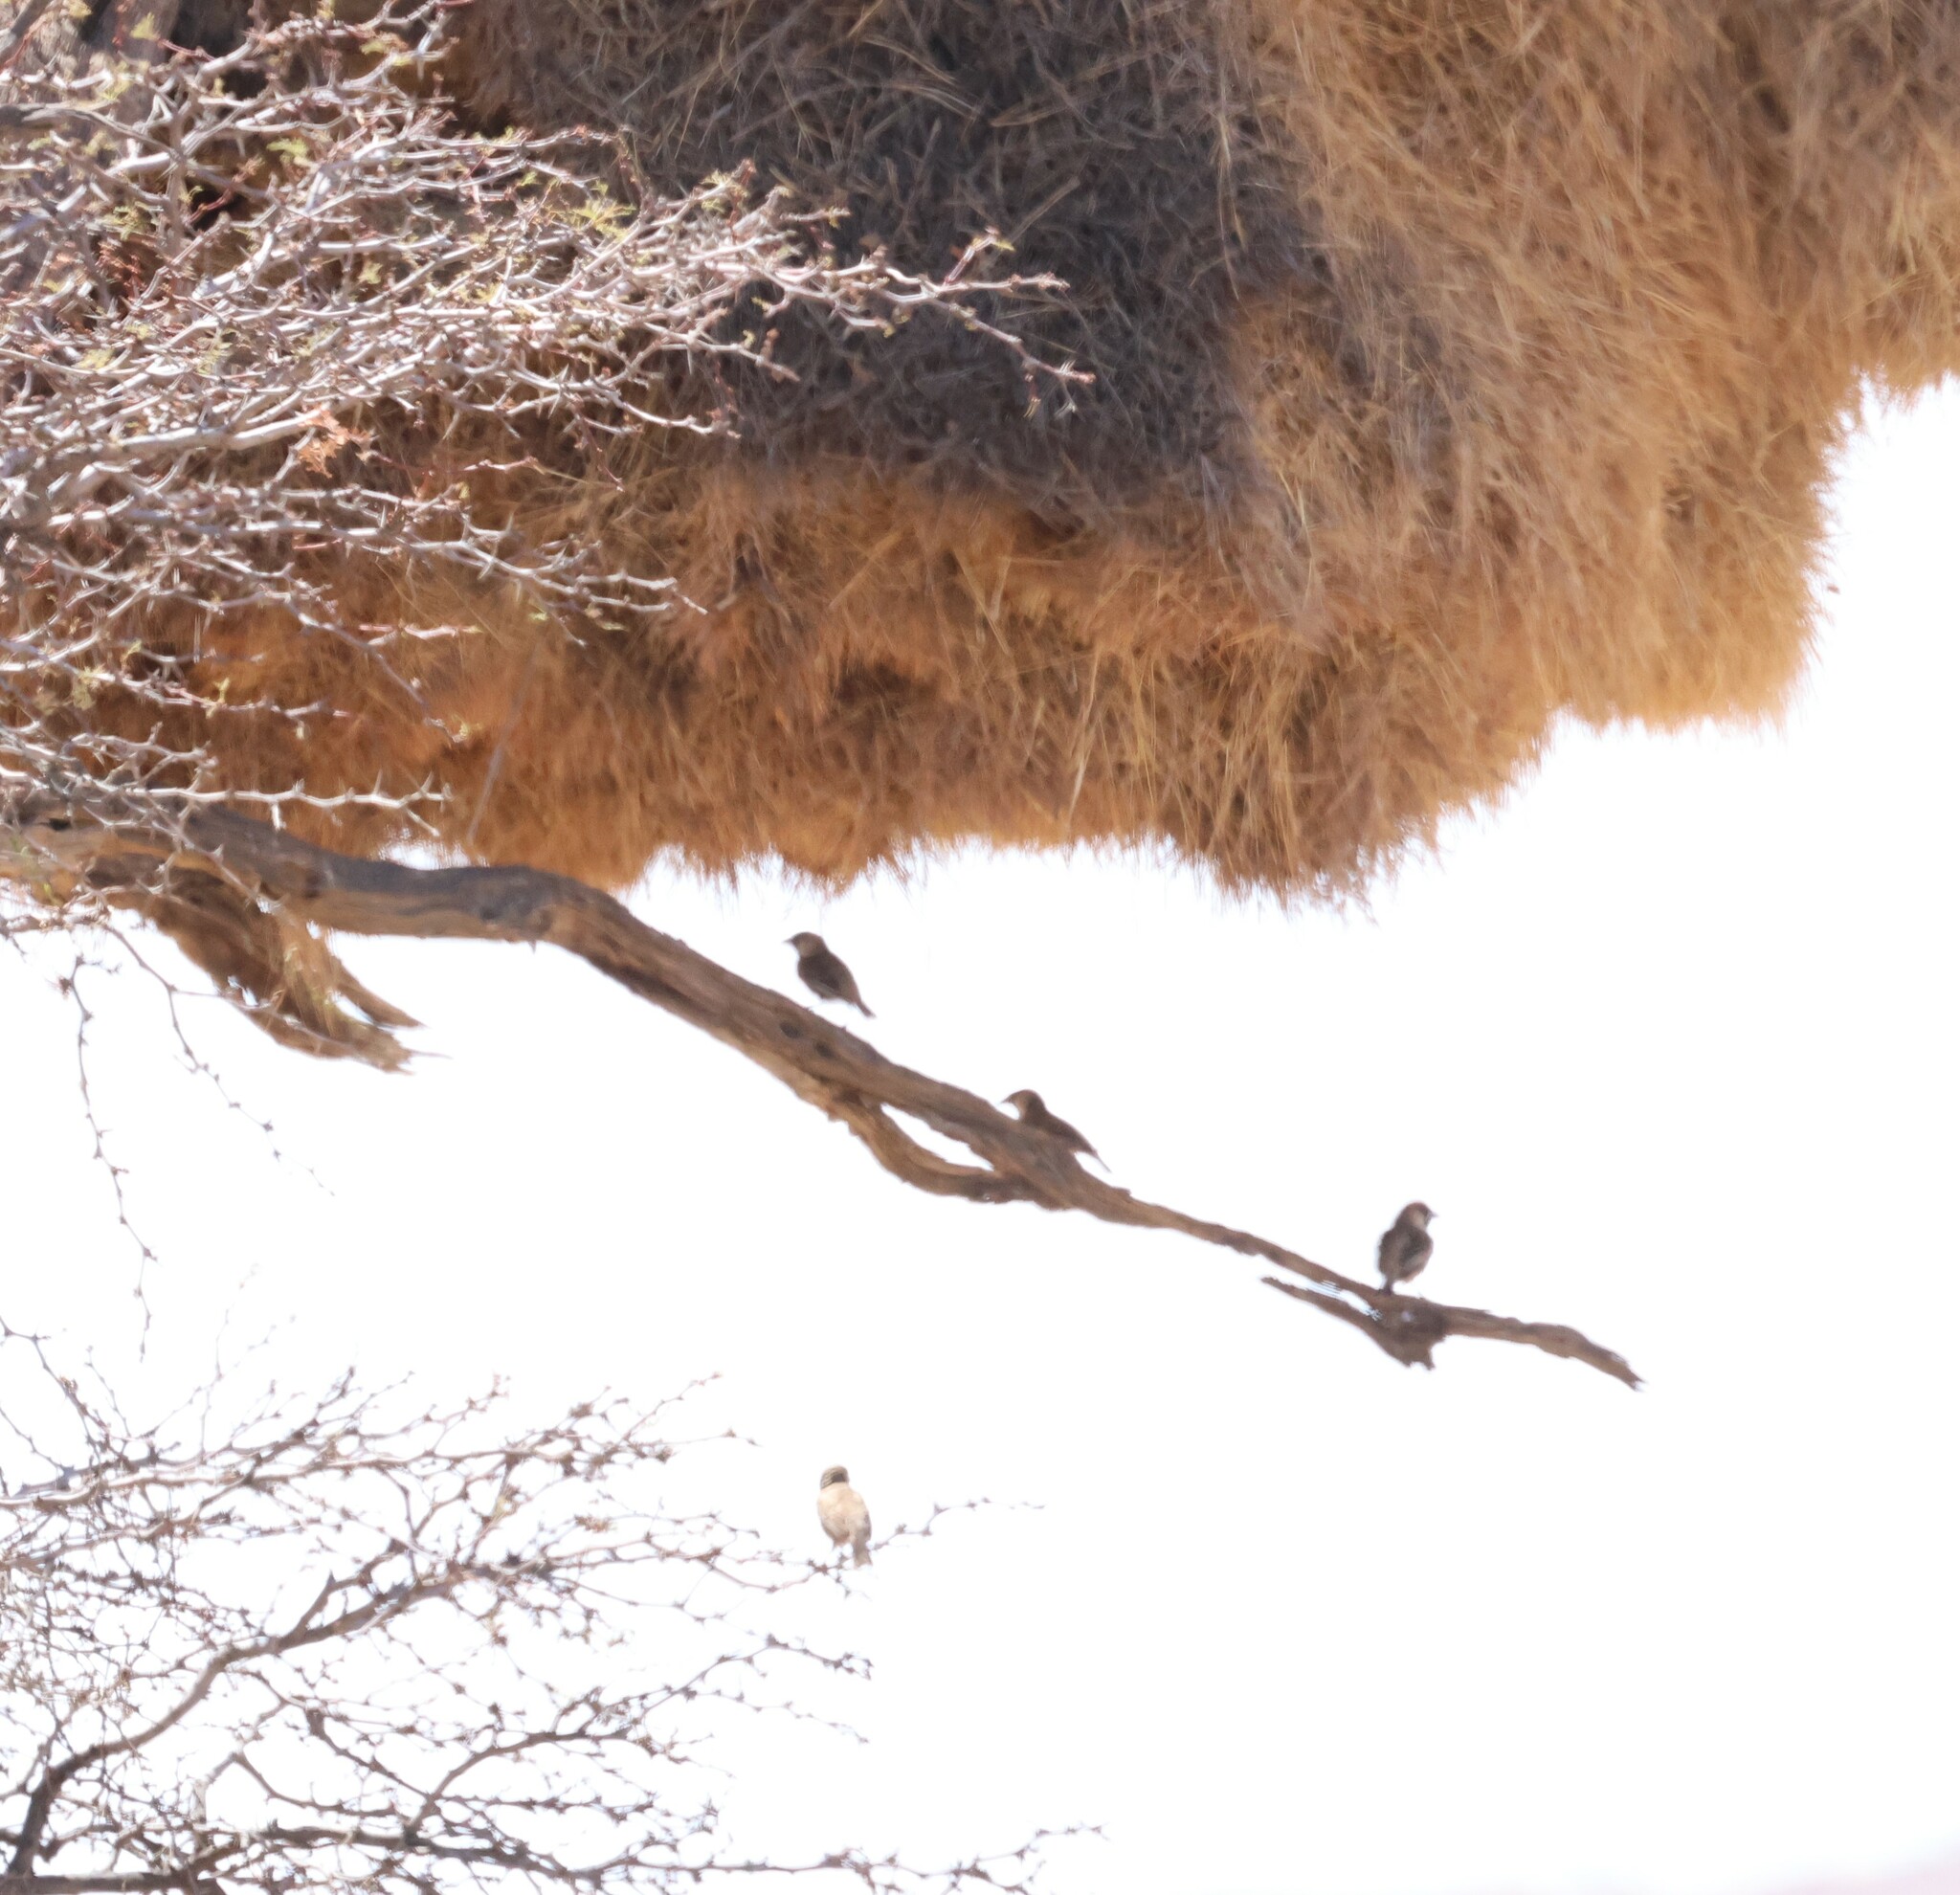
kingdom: Animalia
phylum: Chordata
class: Aves
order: Passeriformes
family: Passeridae
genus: Philetairus
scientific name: Philetairus socius
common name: Sociable weaver
